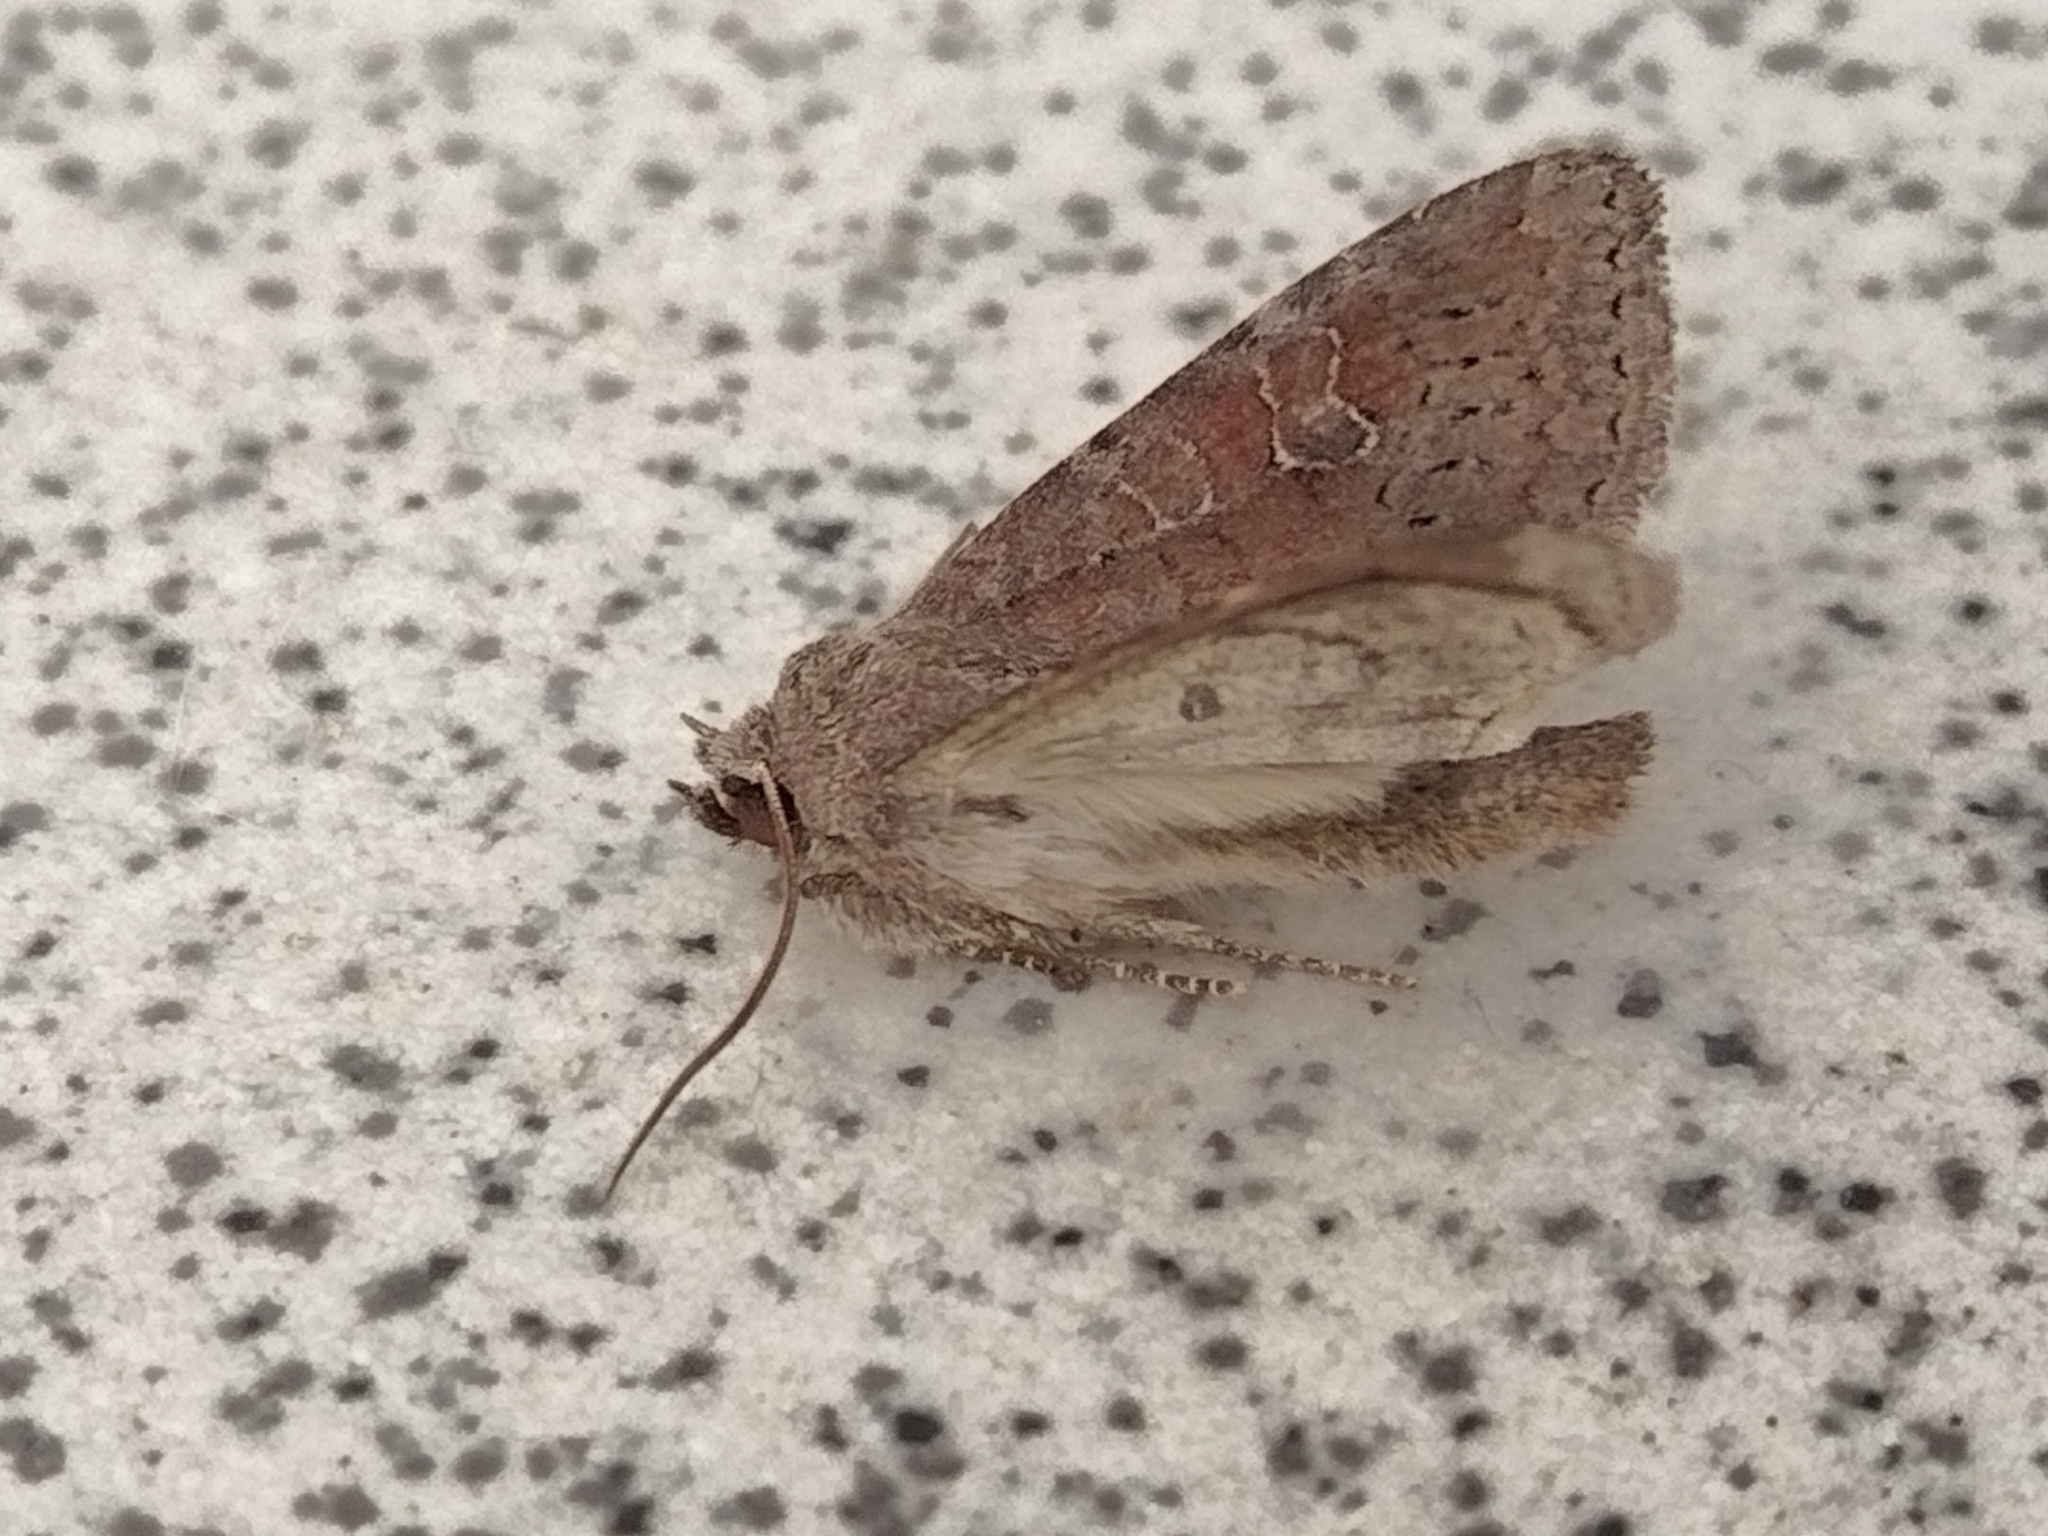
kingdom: Animalia
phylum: Arthropoda
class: Insecta
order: Lepidoptera
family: Noctuidae
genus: Parastichtis
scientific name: Parastichtis suspecta
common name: Suspected
